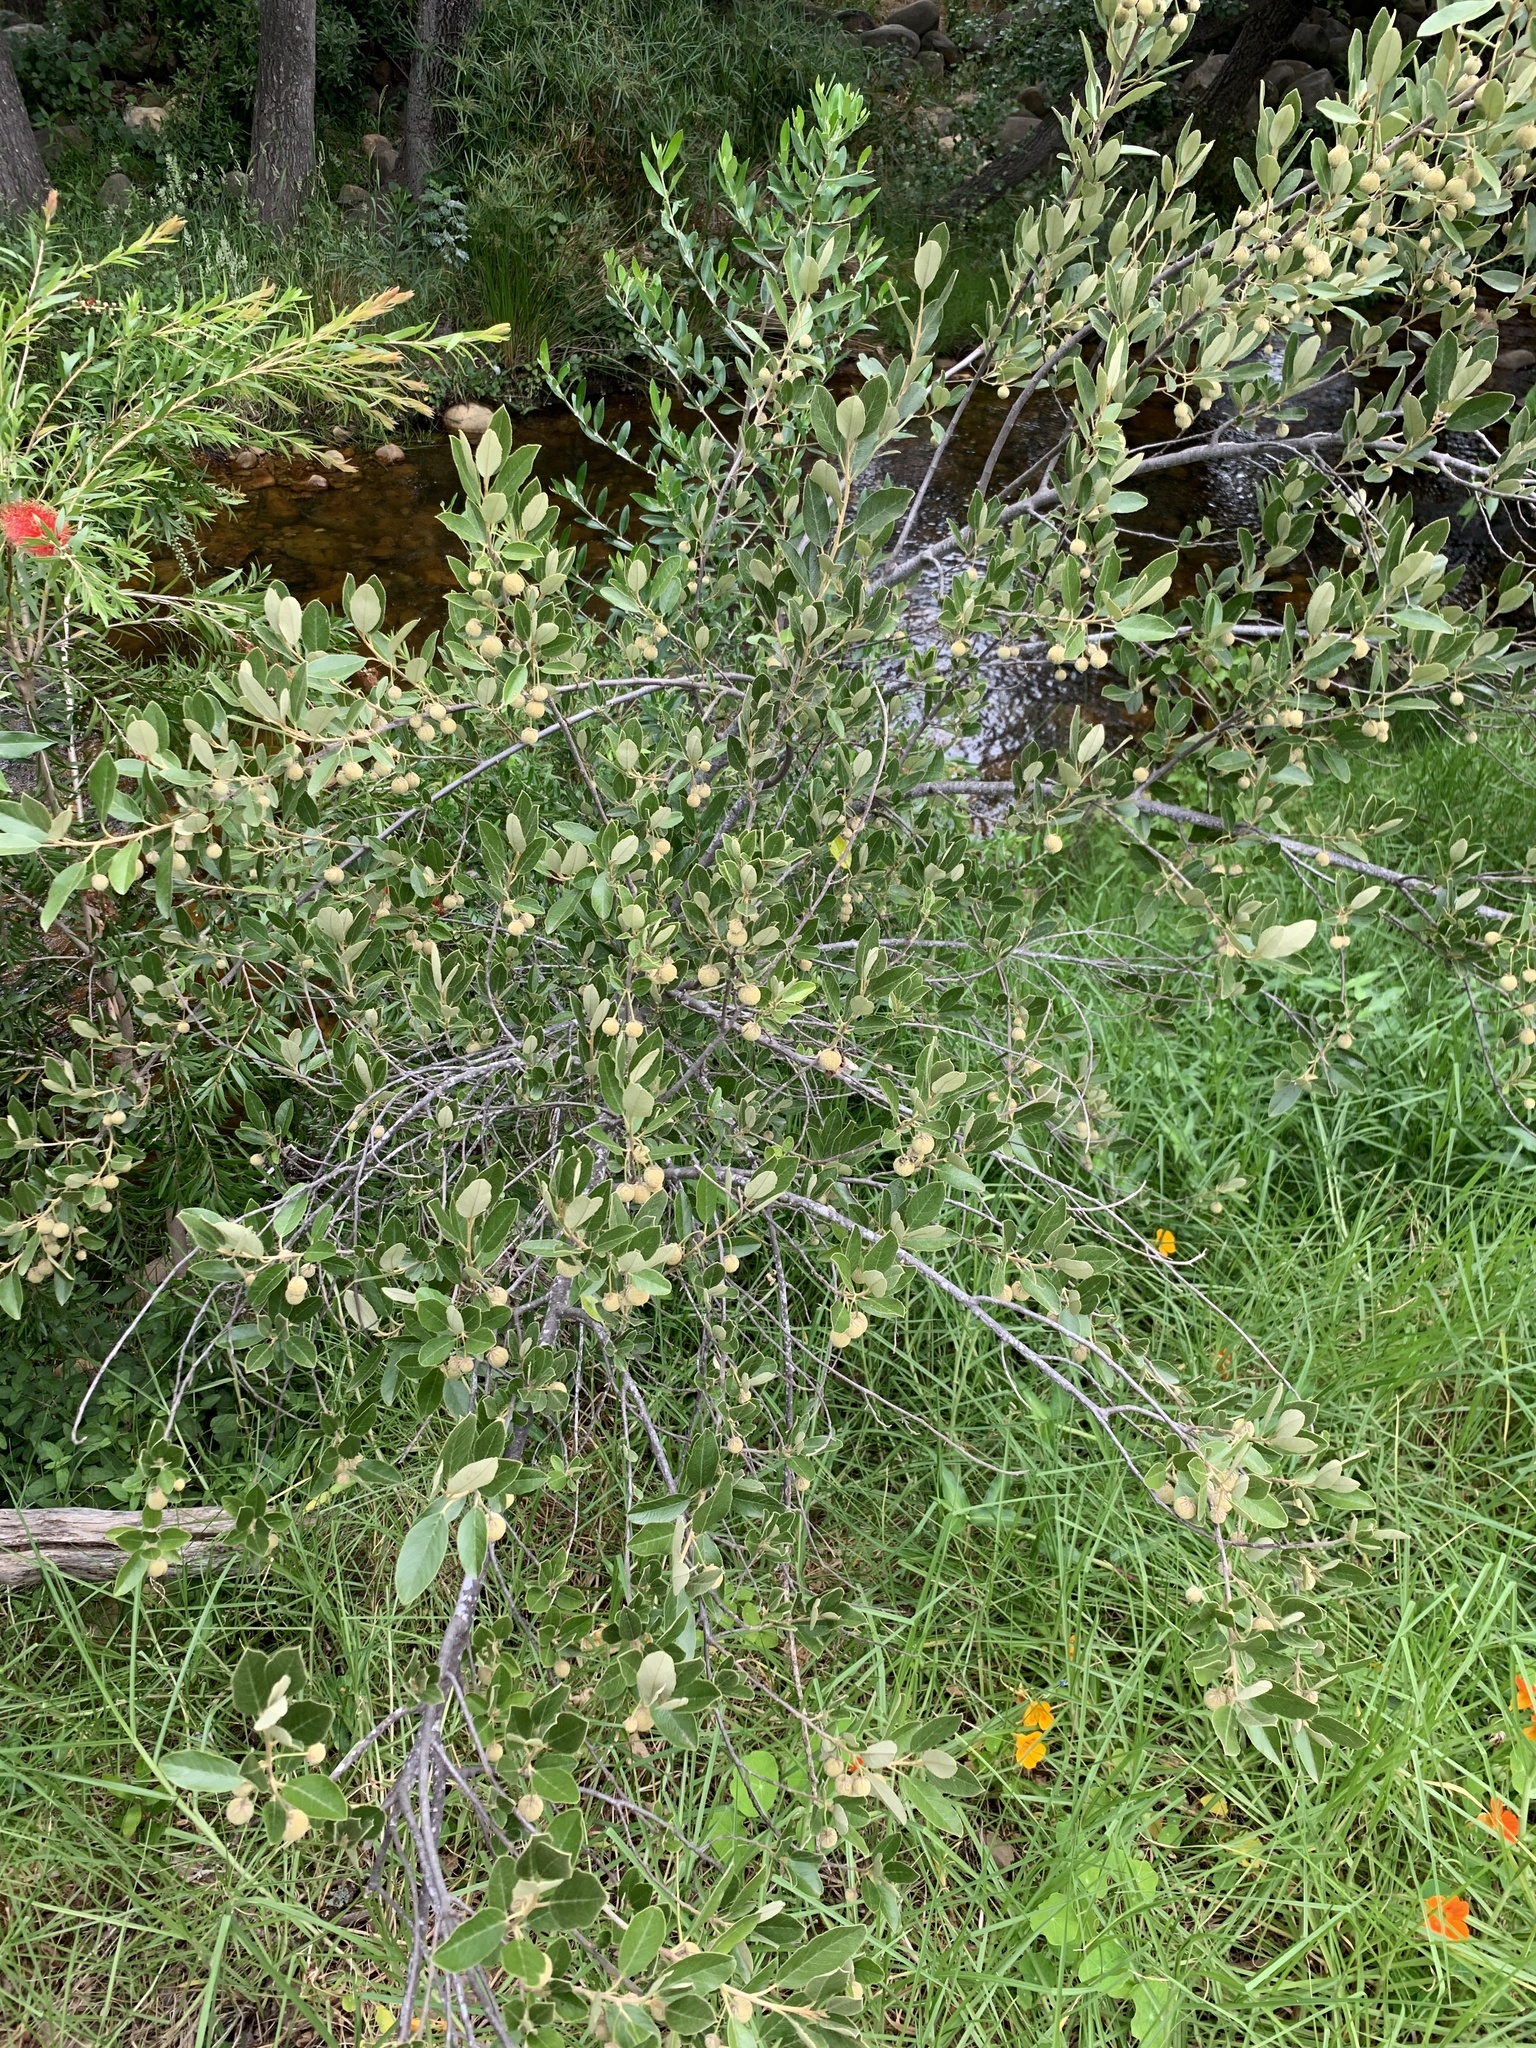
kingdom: Plantae
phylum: Tracheophyta
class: Magnoliopsida
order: Malpighiales
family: Achariaceae
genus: Kiggelaria
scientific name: Kiggelaria africana
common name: Wild peach
